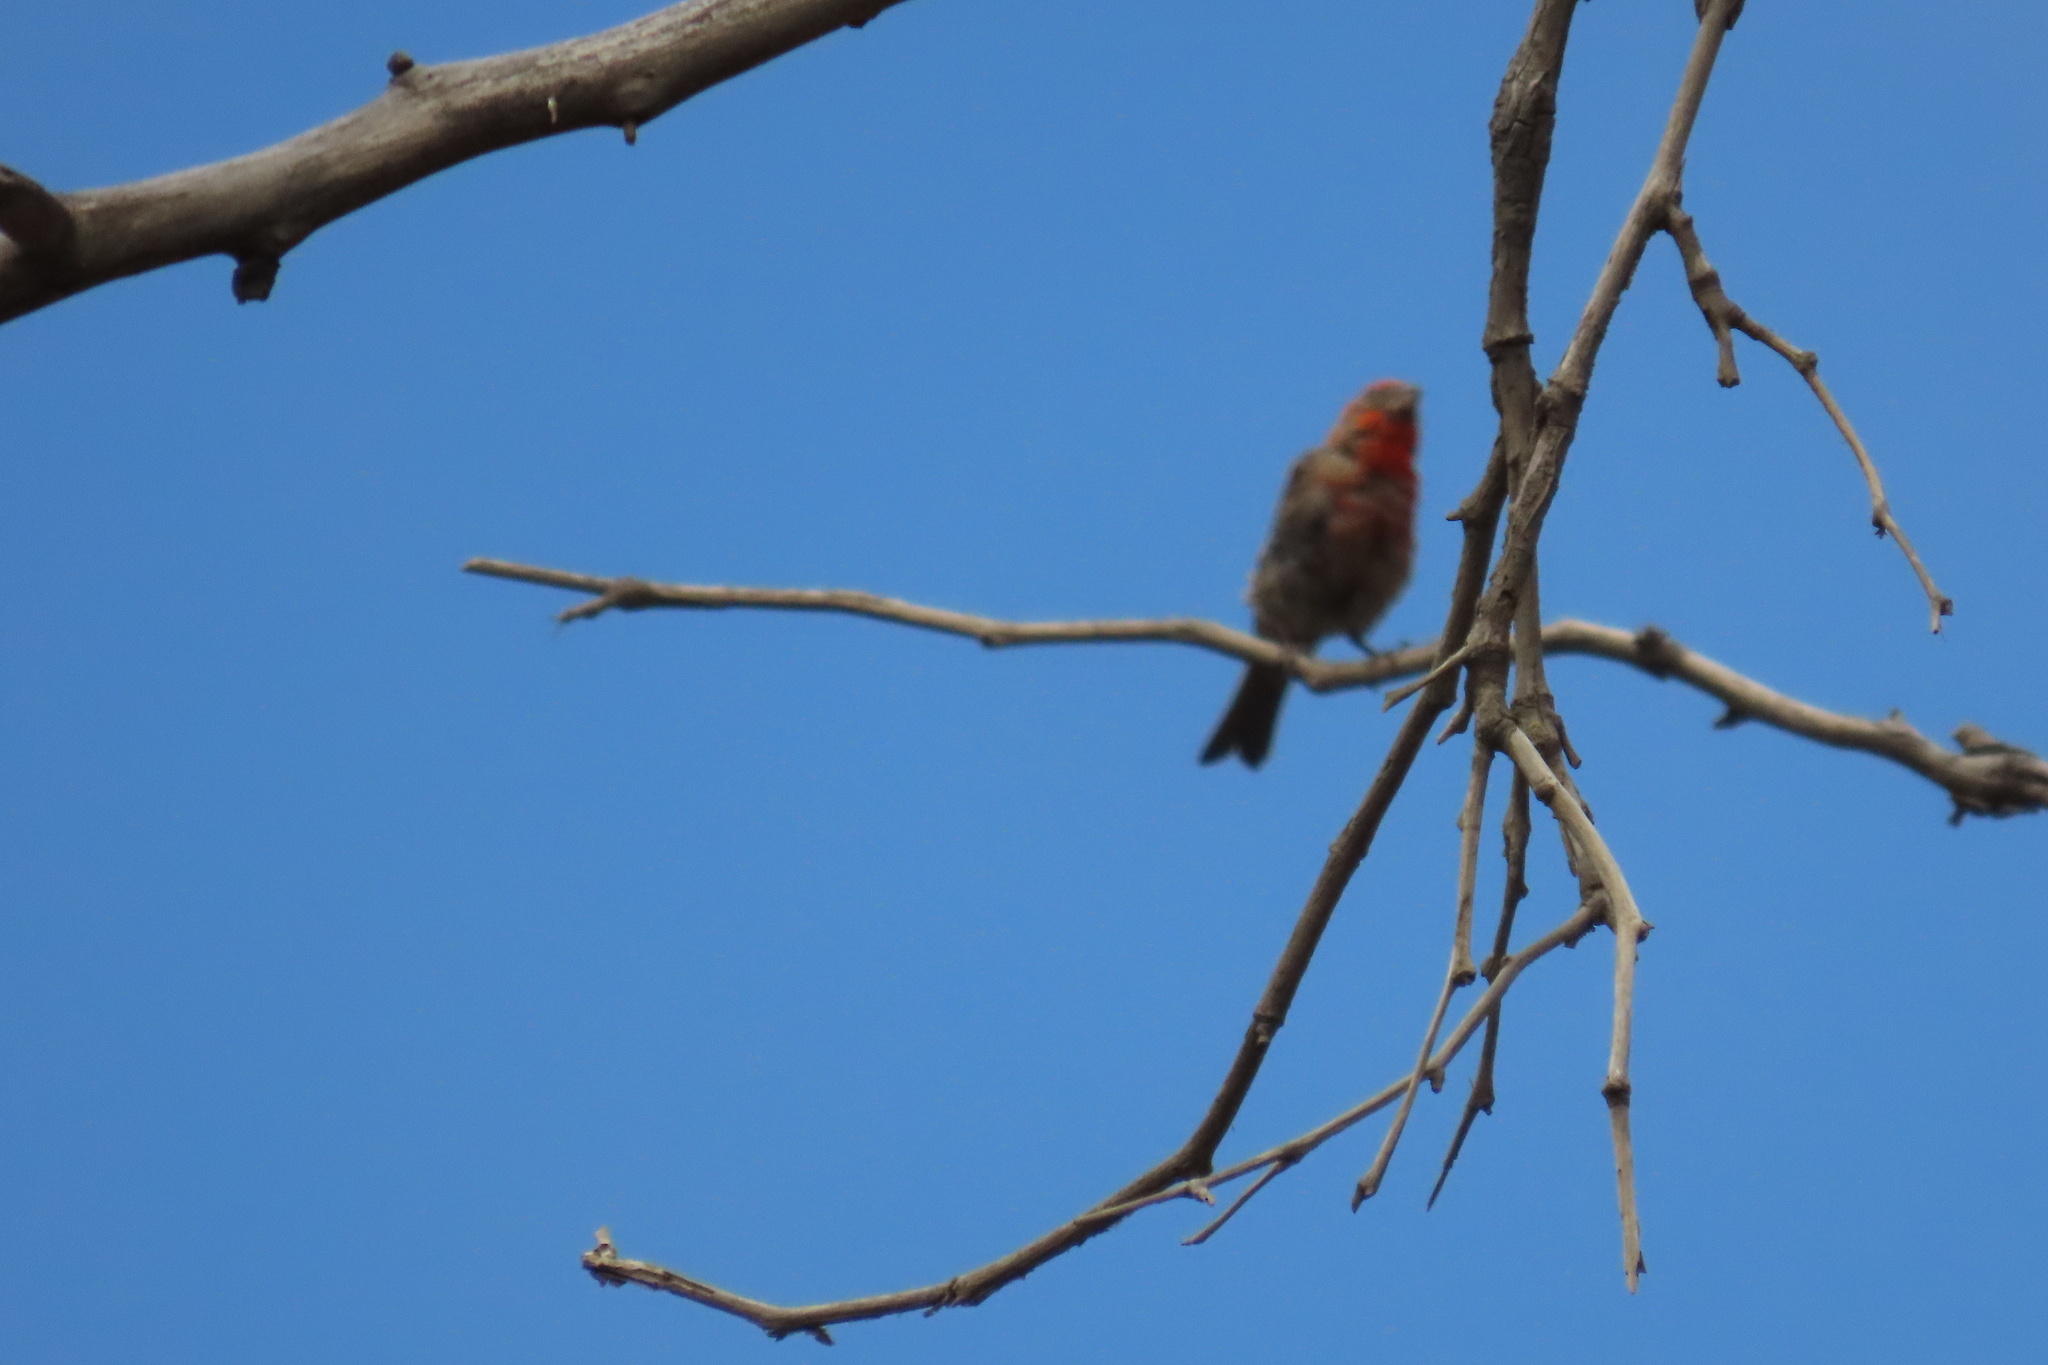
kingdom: Animalia
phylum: Chordata
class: Aves
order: Passeriformes
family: Fringillidae
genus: Haemorhous
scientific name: Haemorhous mexicanus
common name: House finch
